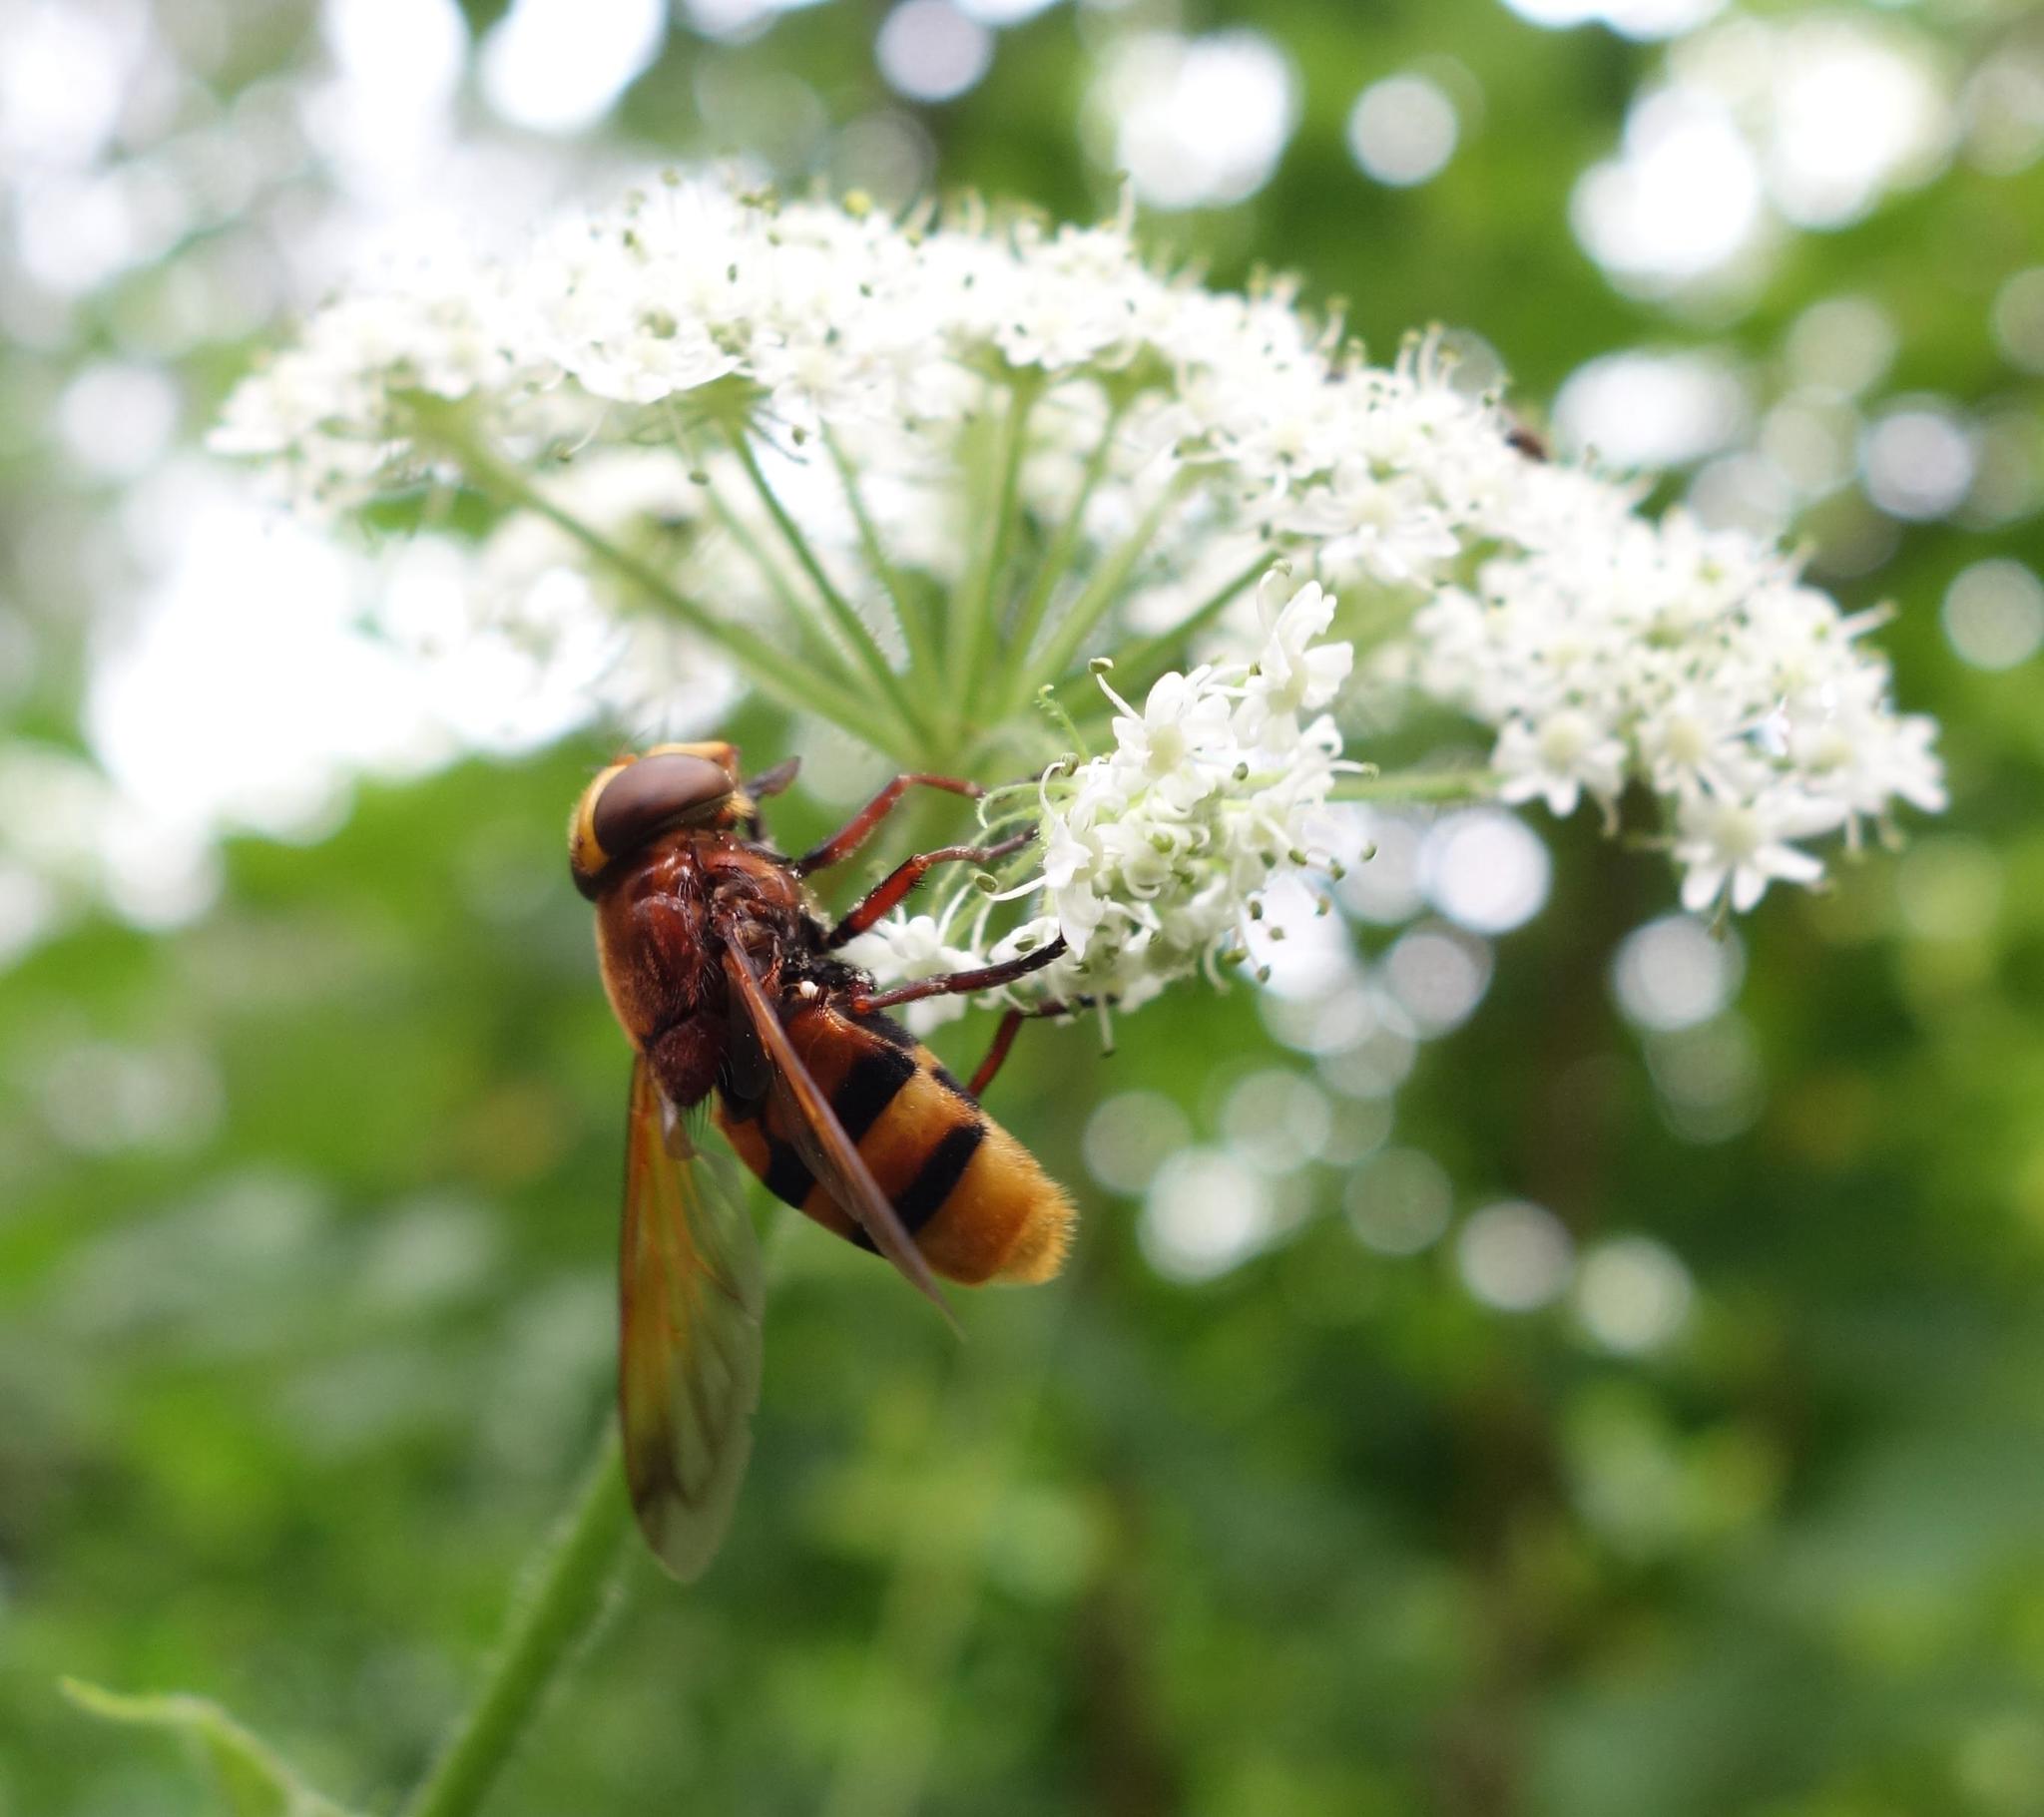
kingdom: Animalia
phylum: Arthropoda
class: Insecta
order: Diptera
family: Syrphidae
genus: Volucella
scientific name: Volucella zonaria
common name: Hornet hoverfly
